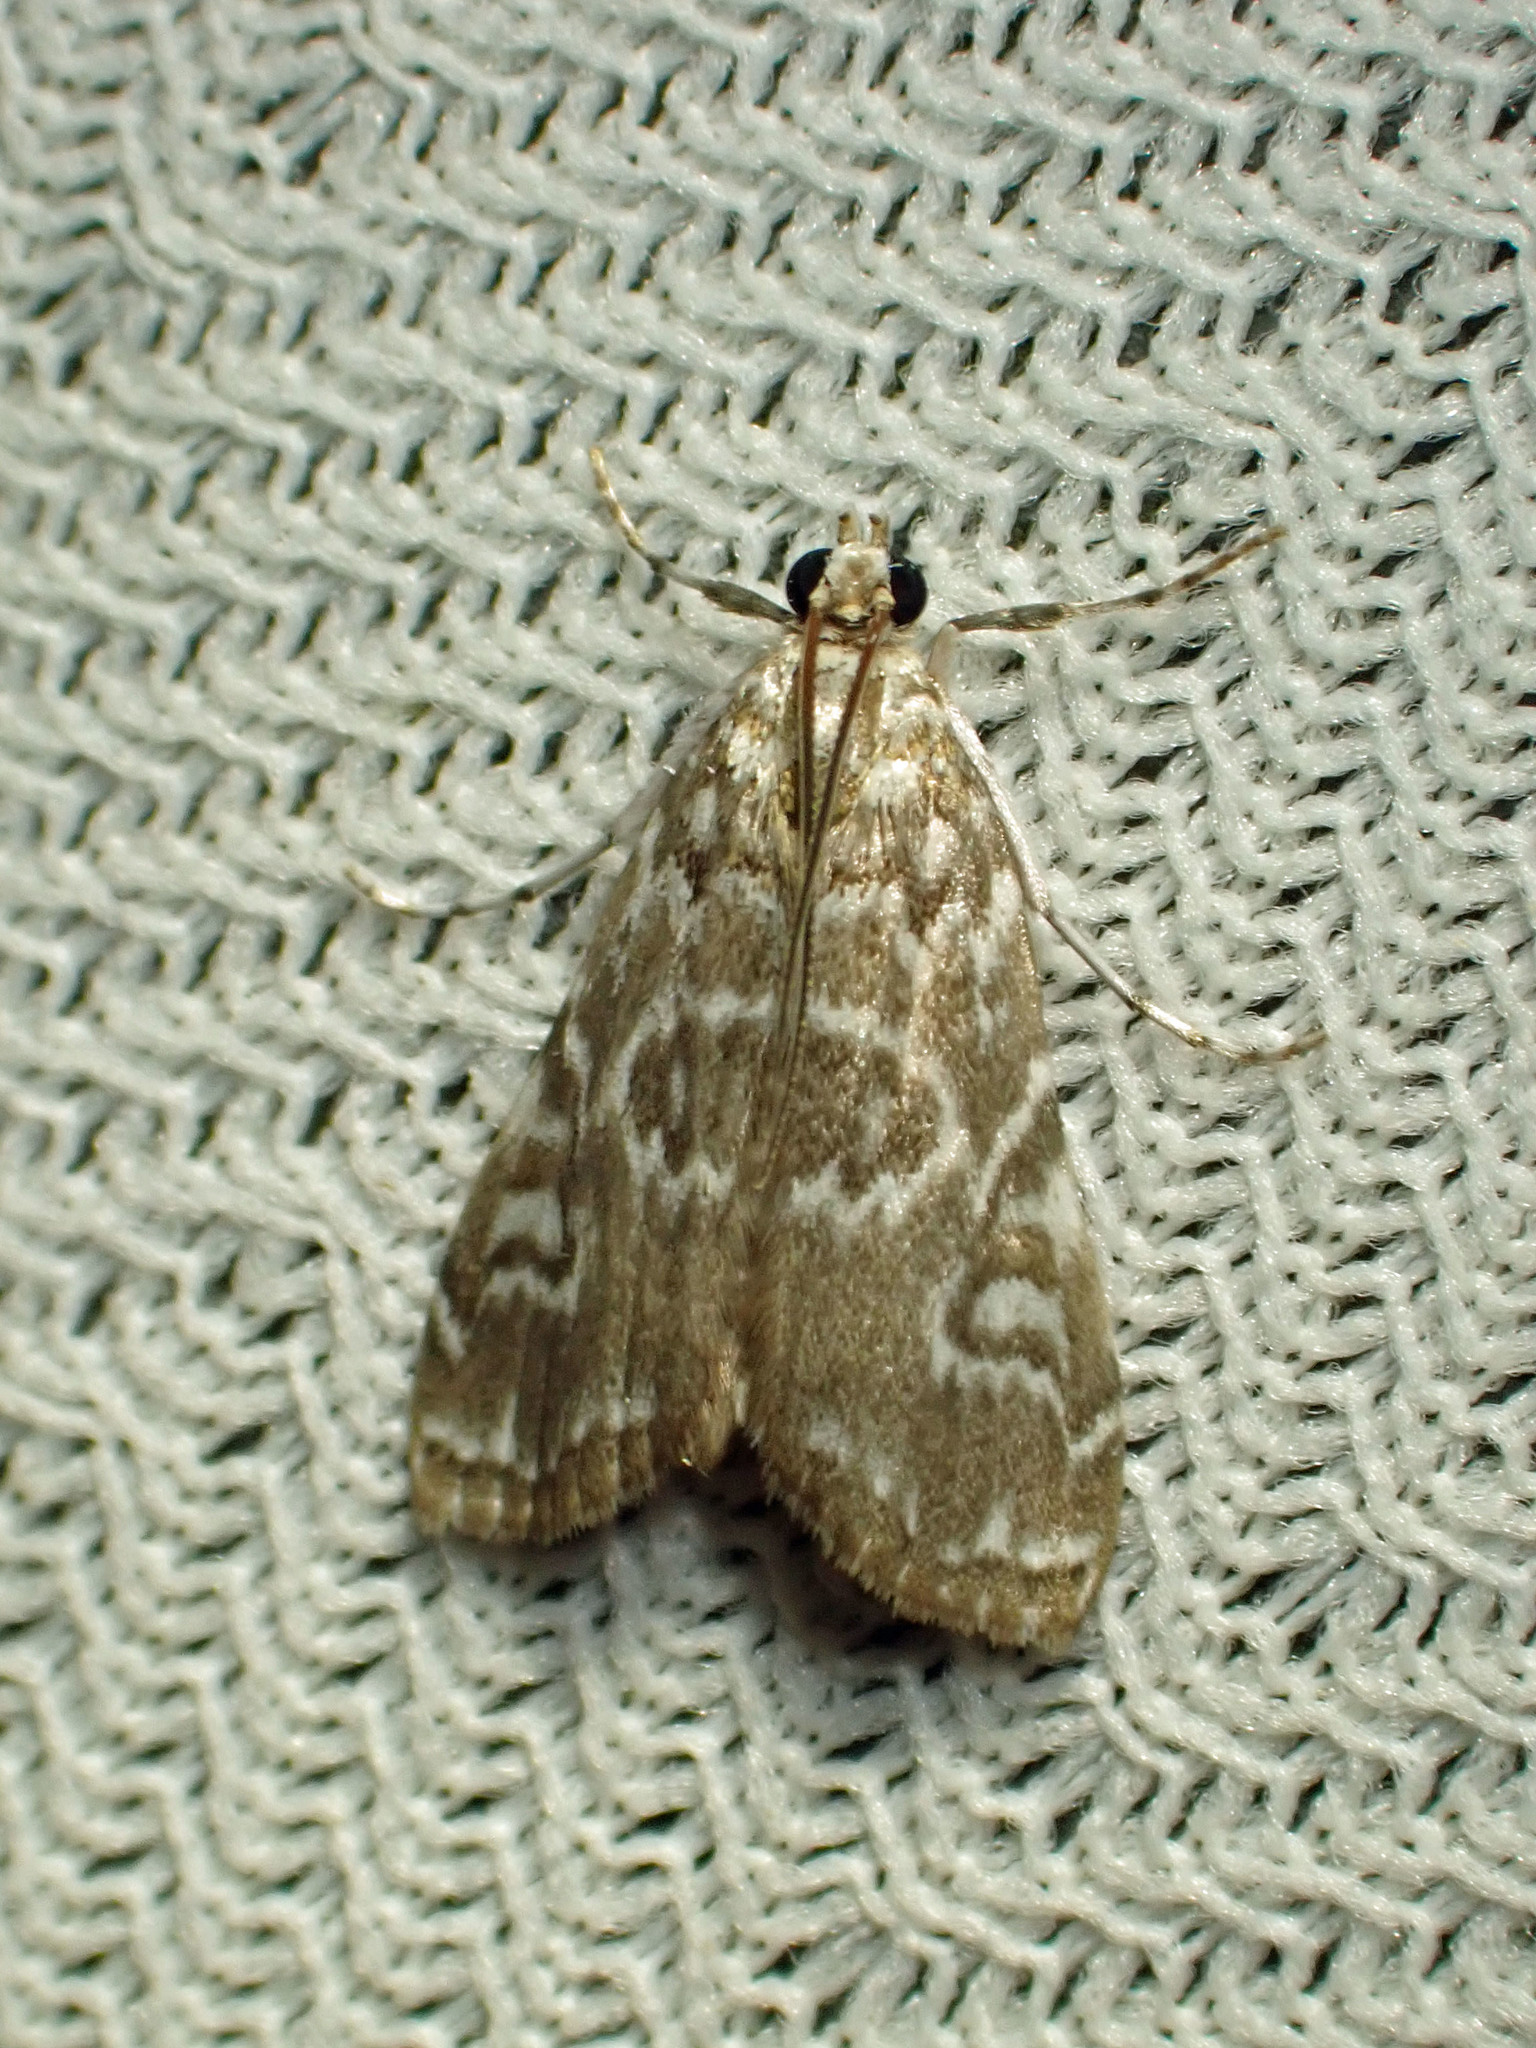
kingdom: Animalia
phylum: Arthropoda
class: Insecta
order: Lepidoptera
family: Crambidae
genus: Elophila
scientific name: Elophila gyralis
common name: Waterlily borer moth
